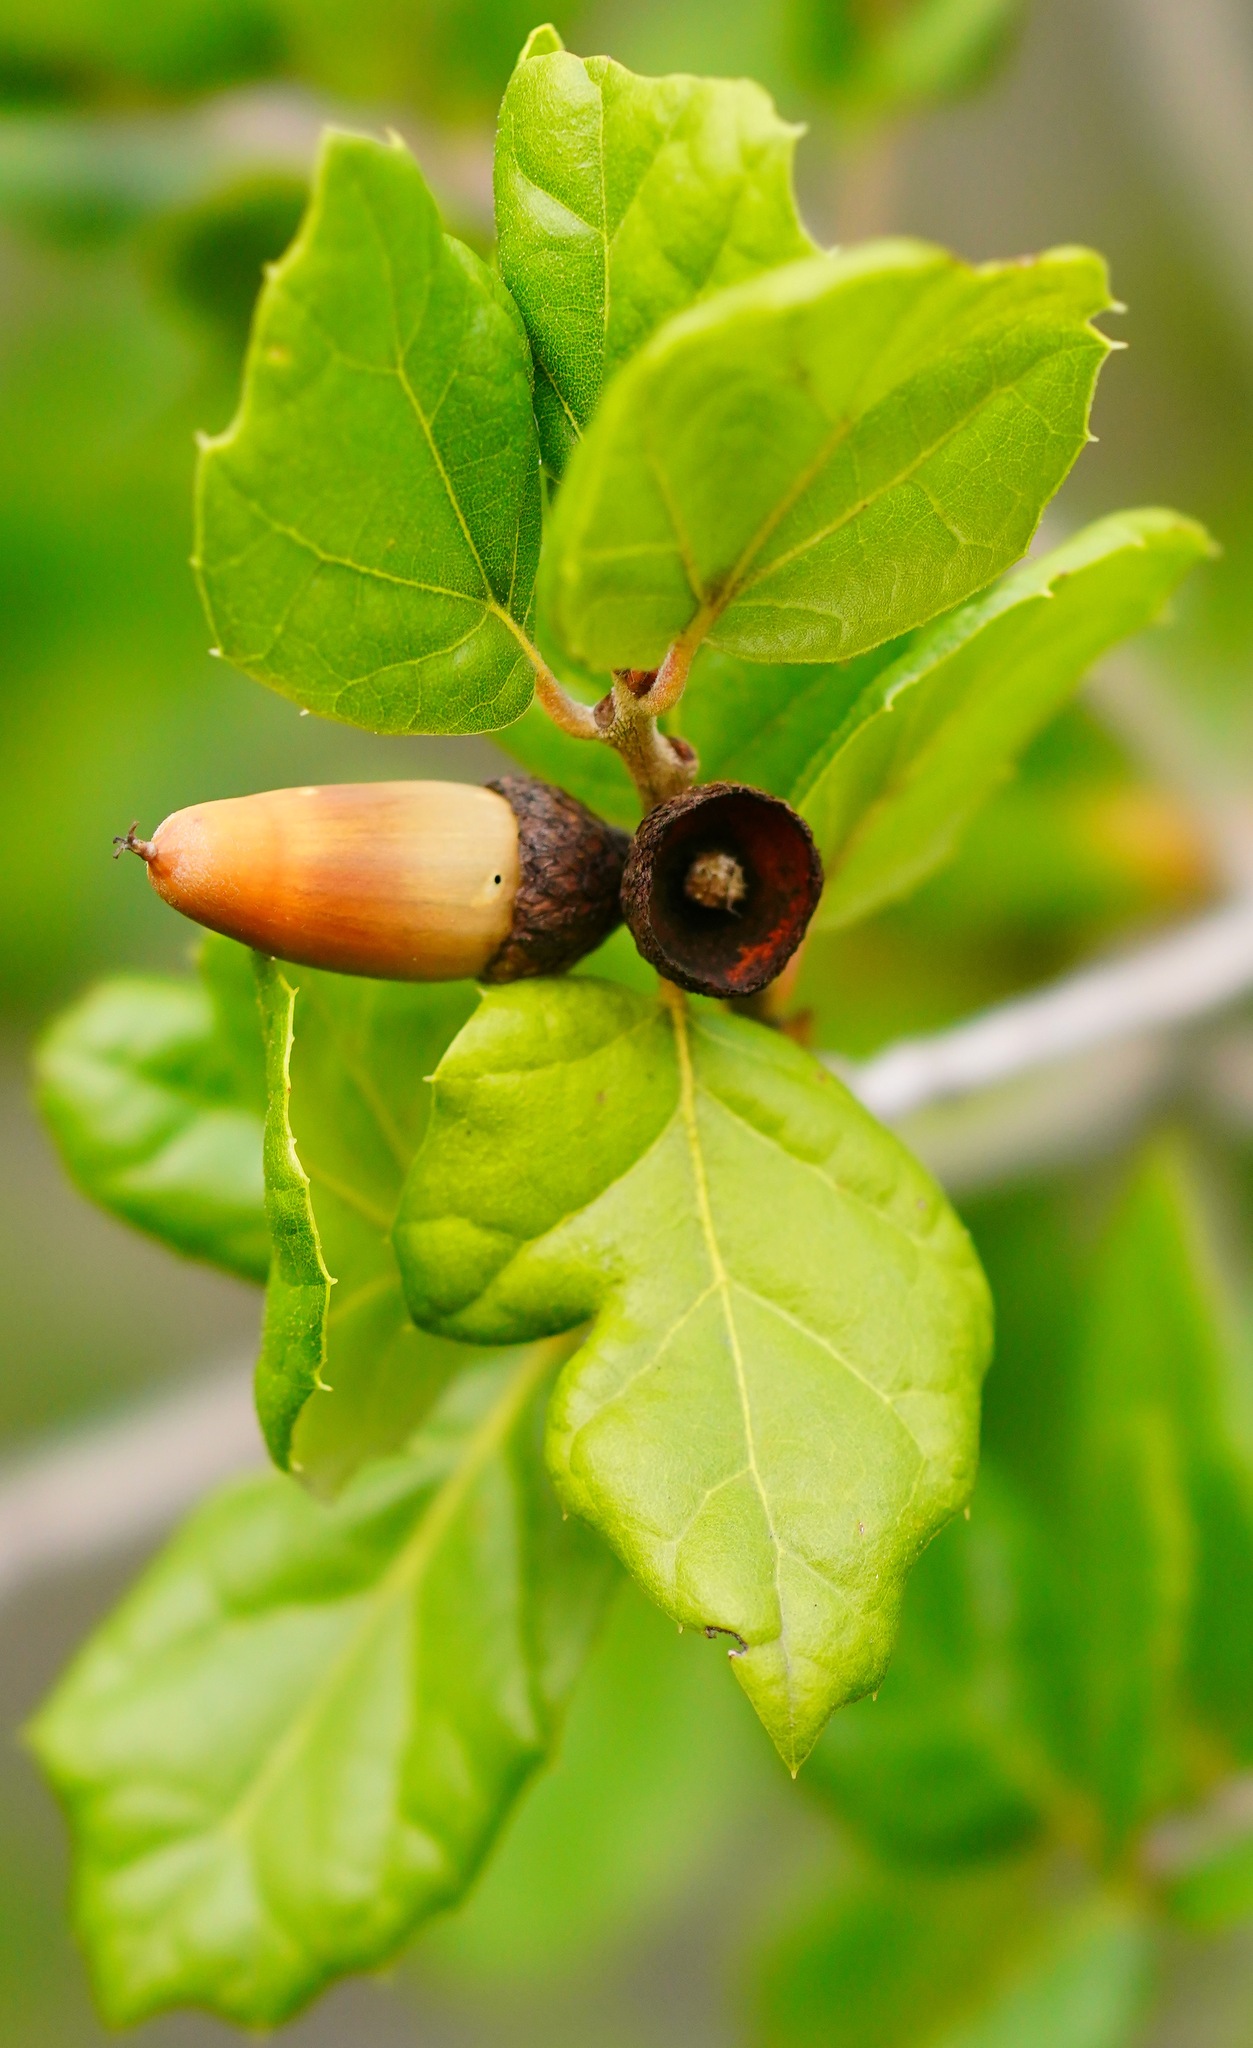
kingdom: Plantae
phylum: Tracheophyta
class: Magnoliopsida
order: Fagales
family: Fagaceae
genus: Quercus
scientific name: Quercus agrifolia
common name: California live oak
